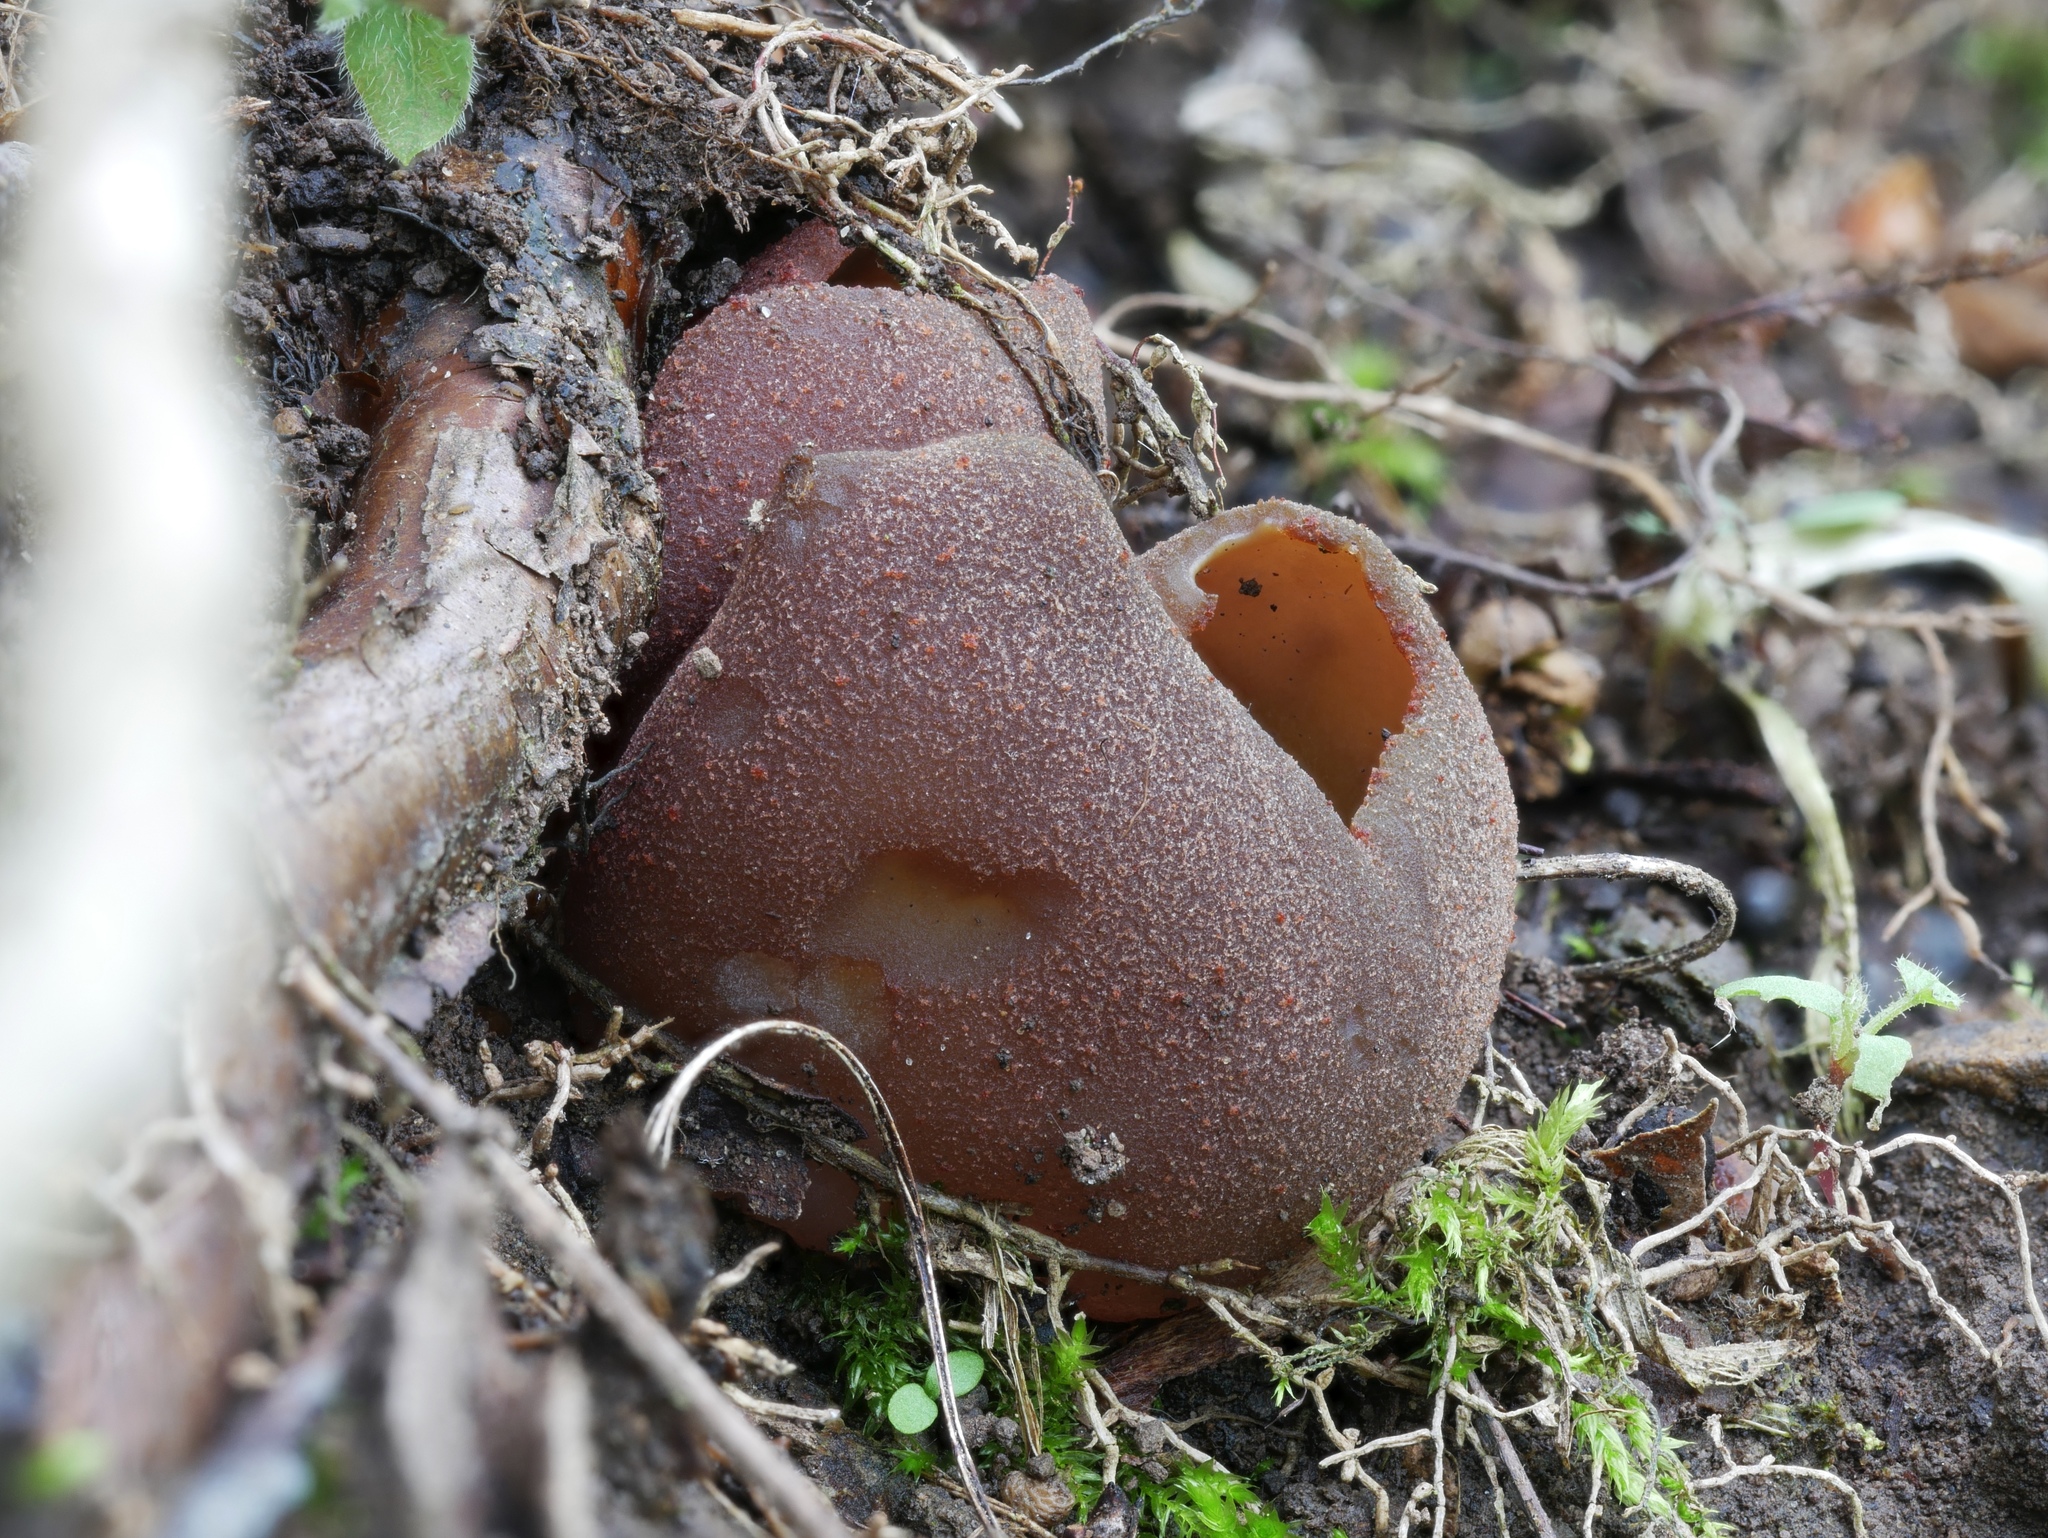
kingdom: Fungi
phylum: Ascomycota
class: Pezizomycetes
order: Pezizales
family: Pezizaceae
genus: Phylloscypha
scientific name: Phylloscypha phyllogena
